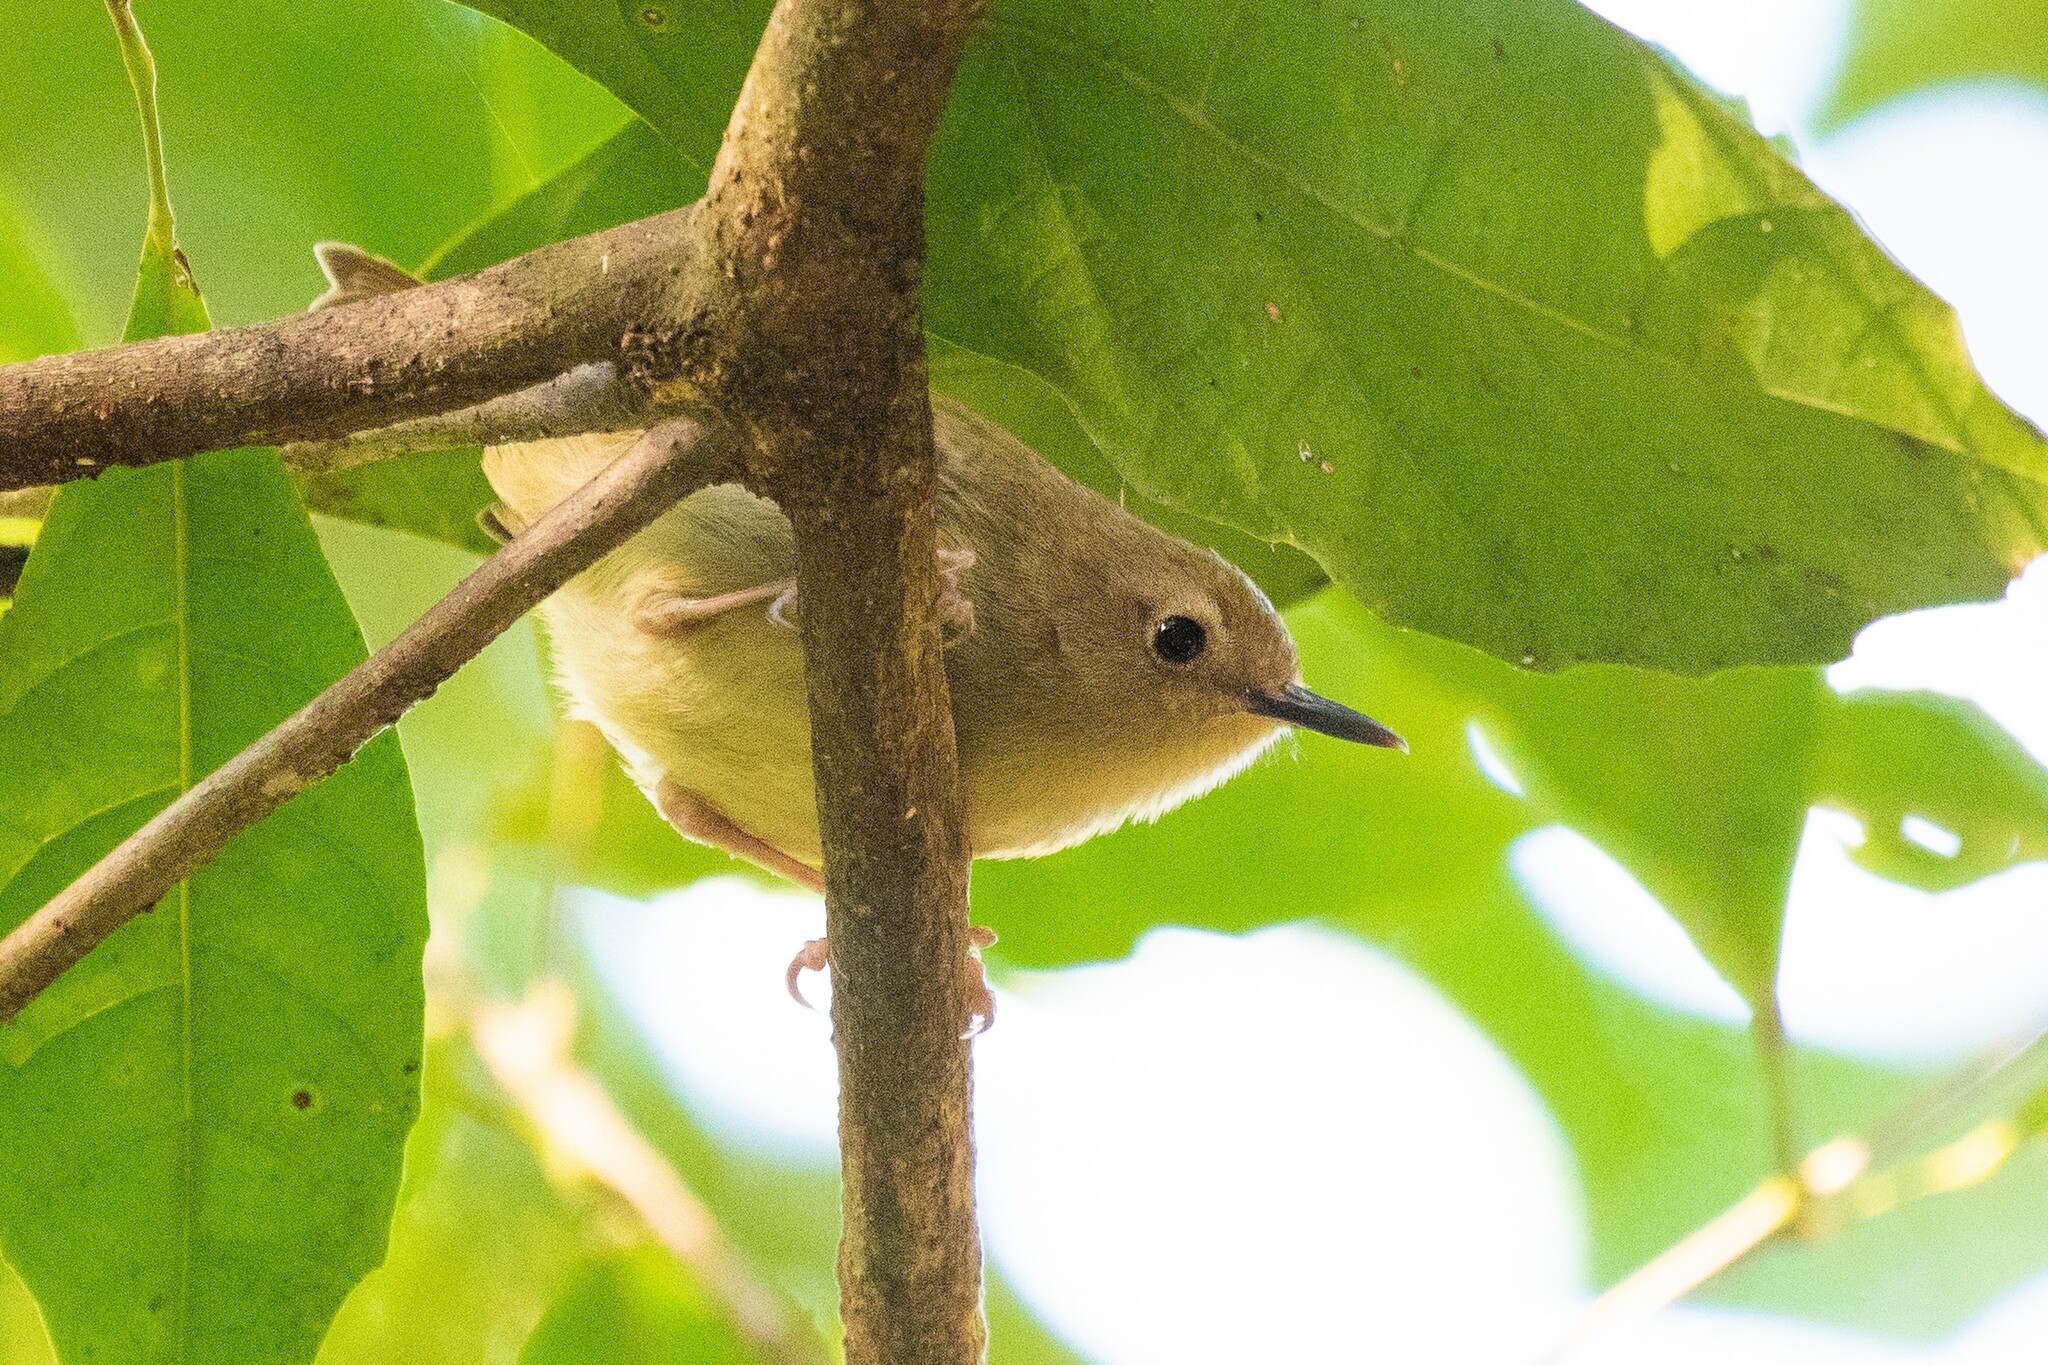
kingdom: Animalia
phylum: Chordata
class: Aves
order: Passeriformes
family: Acanthizidae
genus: Sericornis
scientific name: Sericornis magnirostra
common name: Large-billed scrubwren
